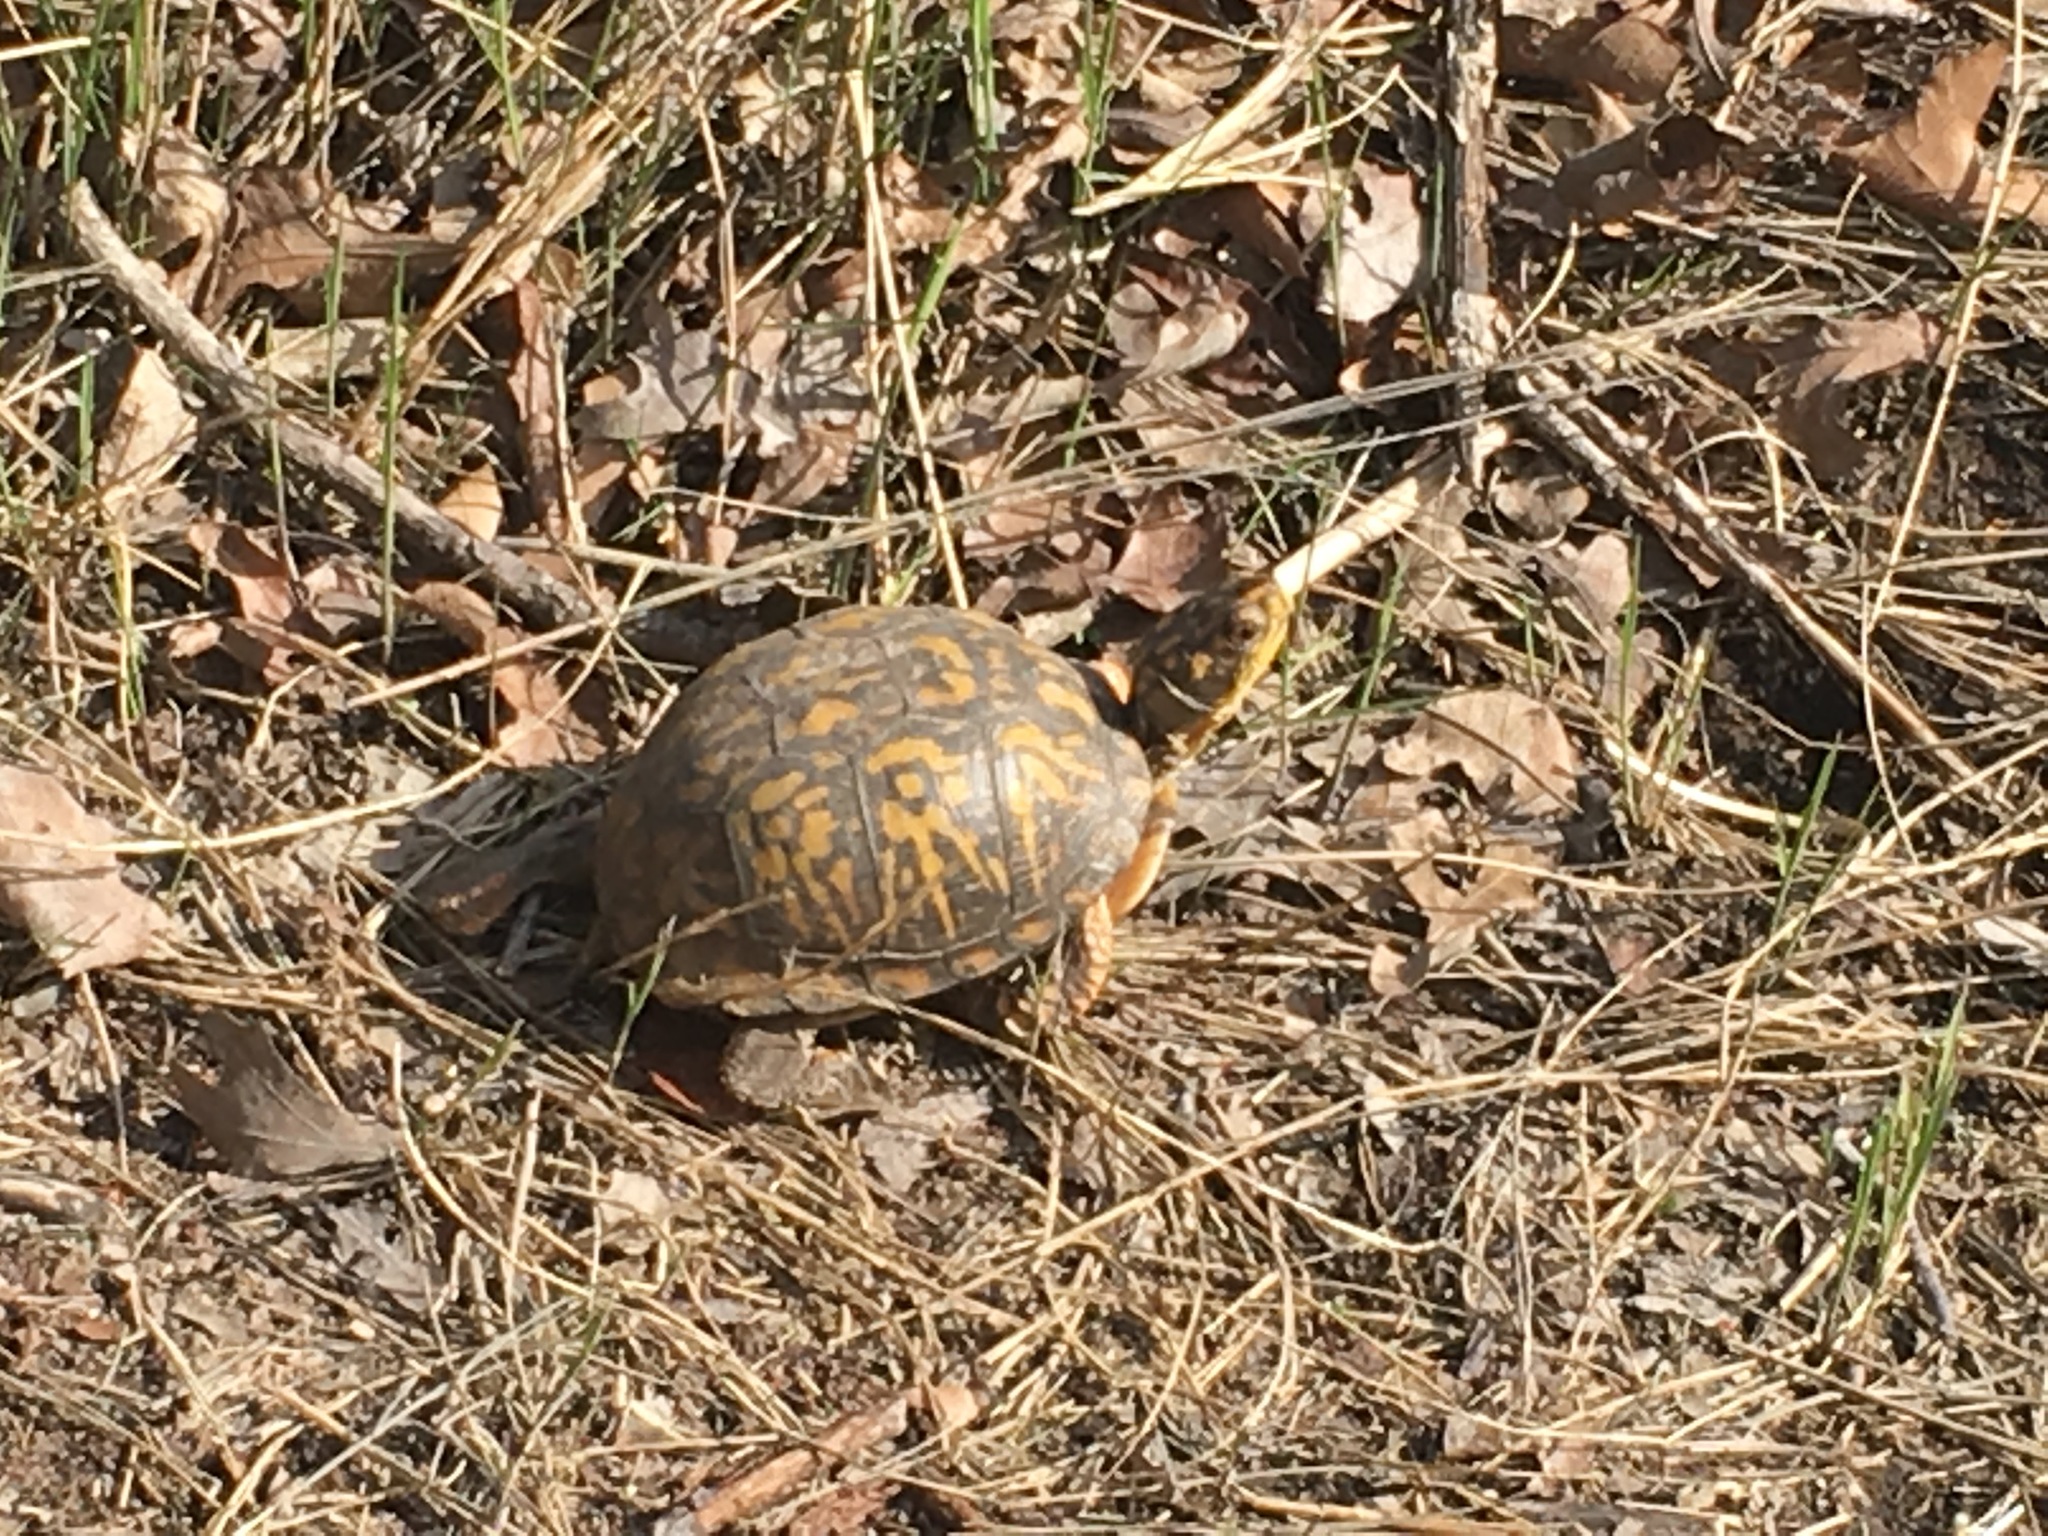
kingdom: Animalia
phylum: Chordata
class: Testudines
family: Emydidae
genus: Terrapene
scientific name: Terrapene carolina
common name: Common box turtle
